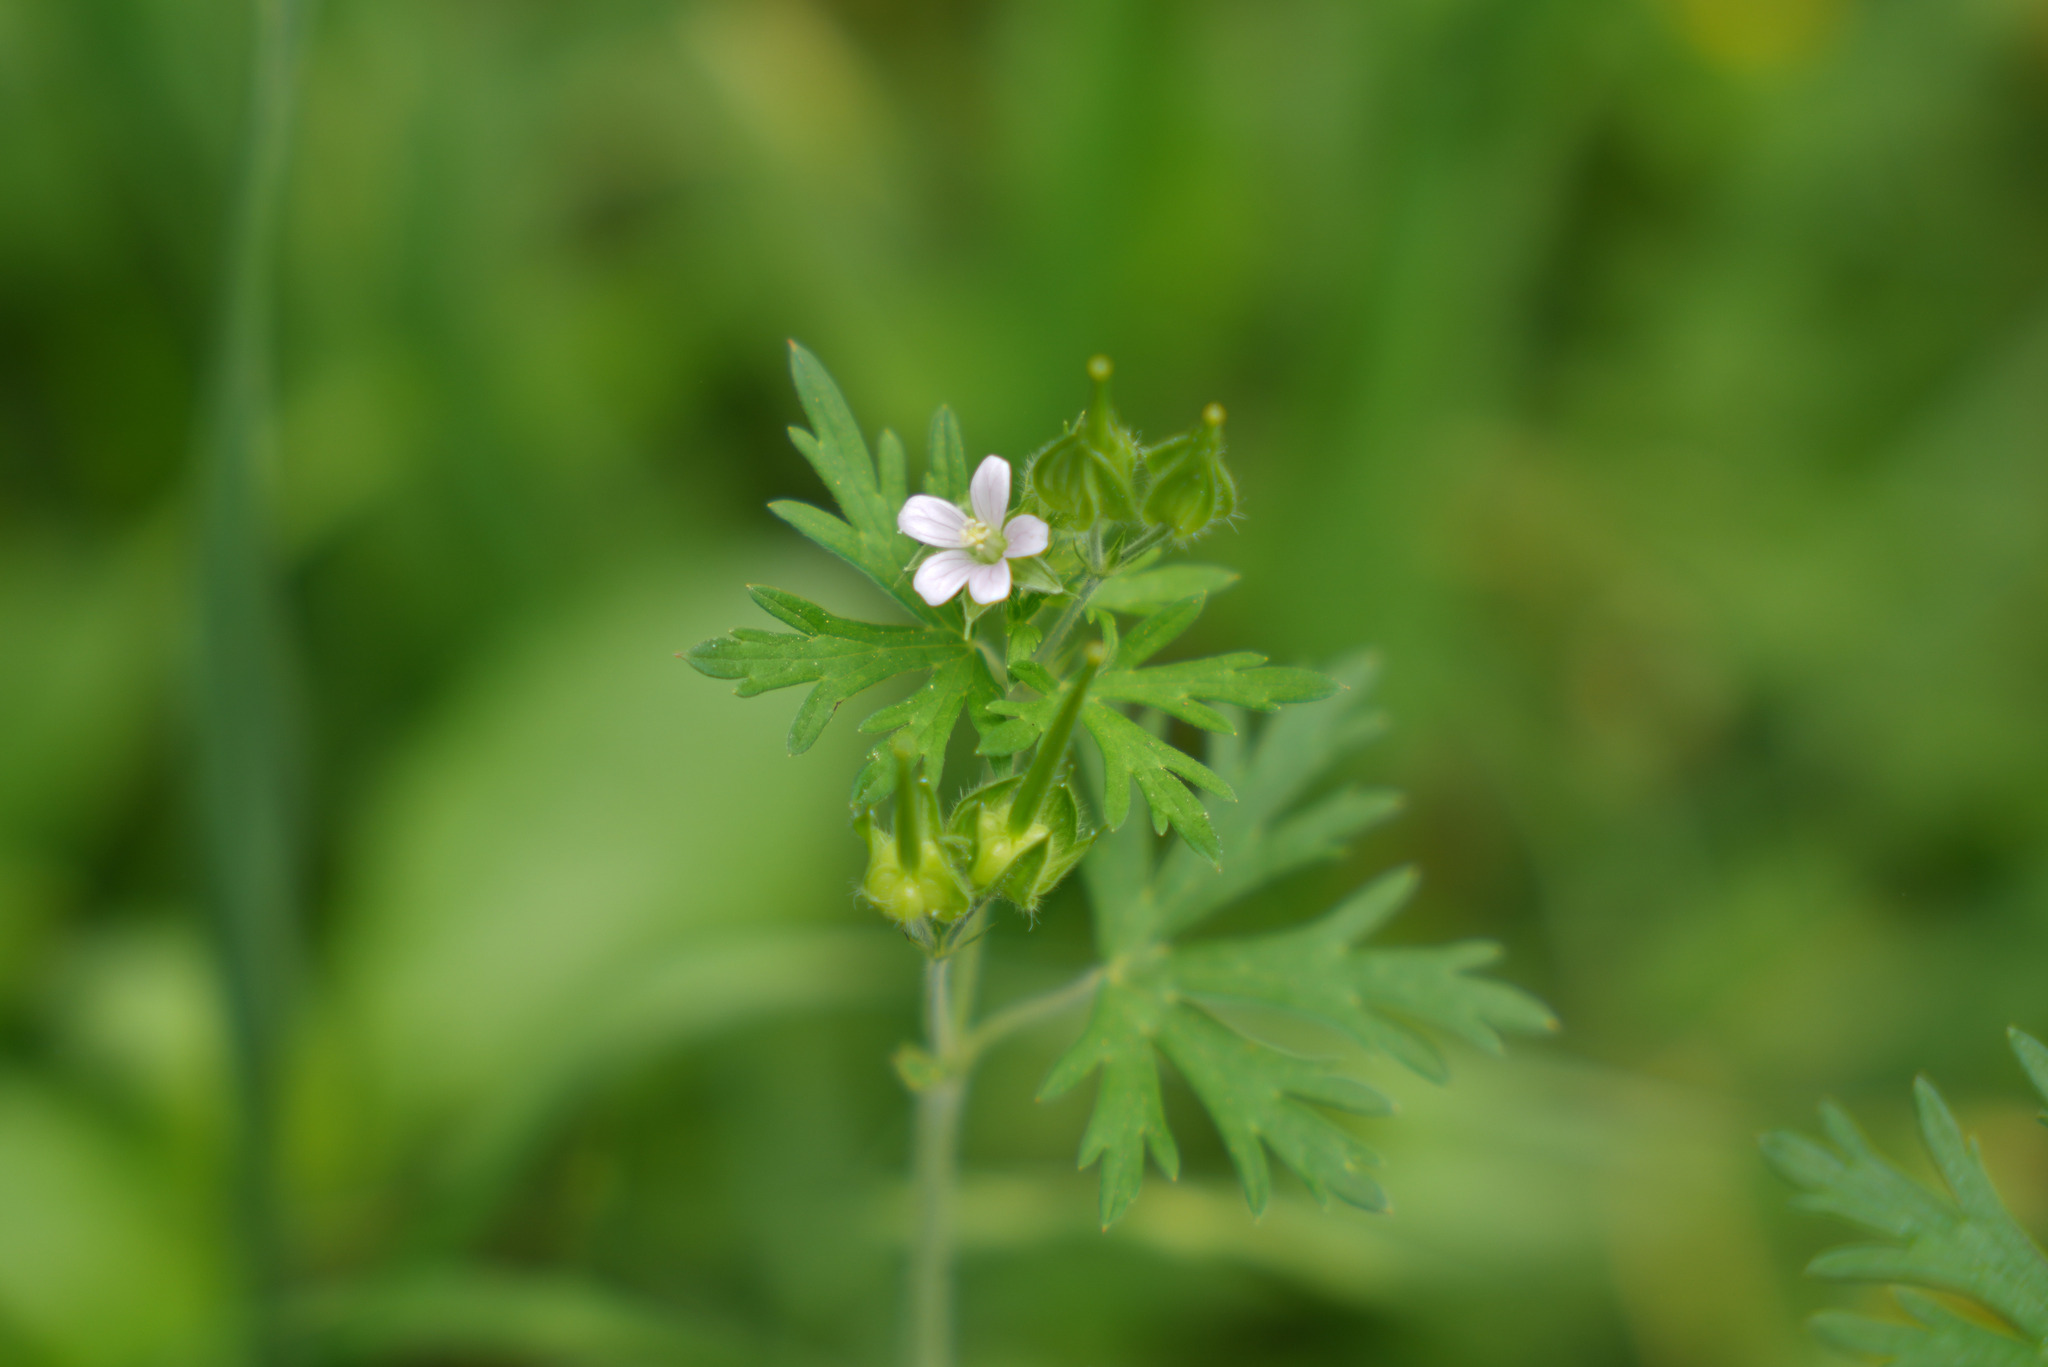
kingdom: Plantae
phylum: Tracheophyta
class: Magnoliopsida
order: Geraniales
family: Geraniaceae
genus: Geranium
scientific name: Geranium carolinianum
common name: Carolina crane's-bill
